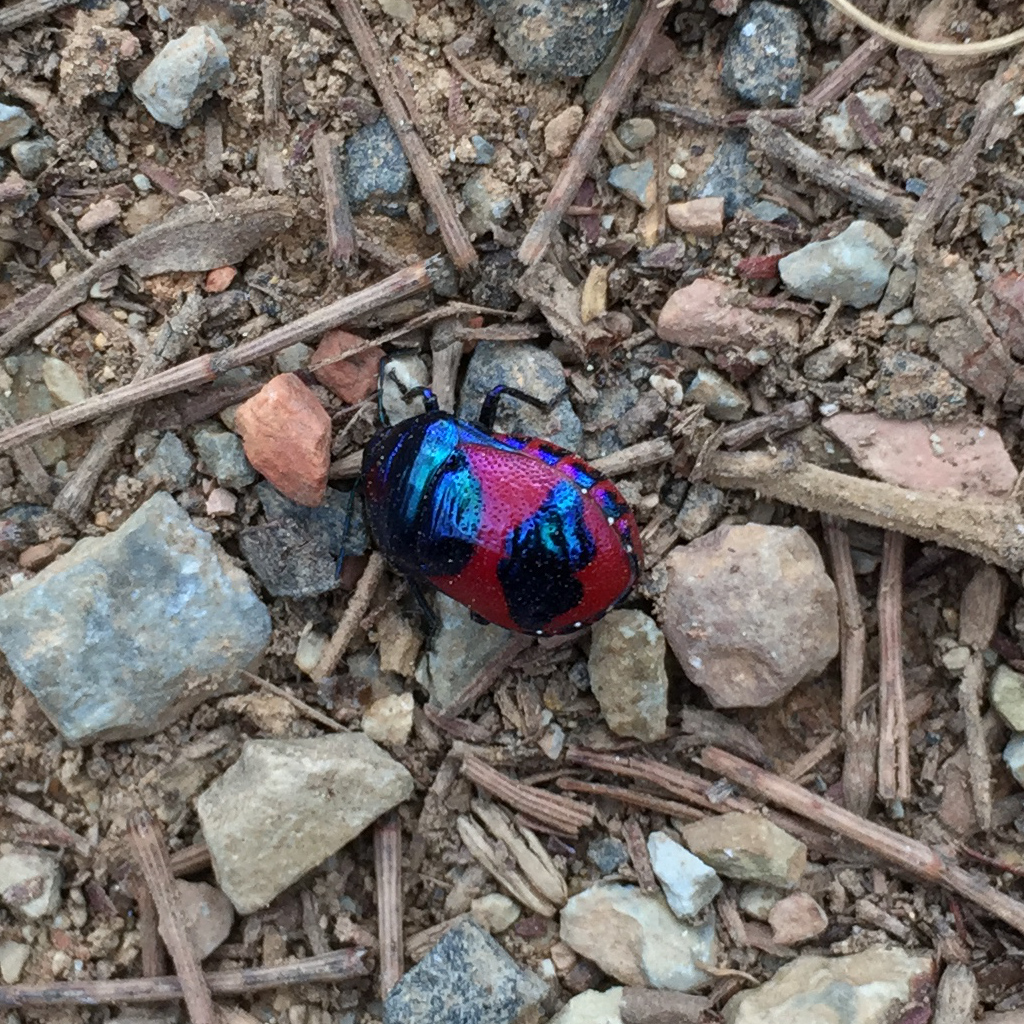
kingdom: Animalia
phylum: Arthropoda
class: Insecta
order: Hemiptera
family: Scutelleridae
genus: Choerocoris
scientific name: Choerocoris paganus
